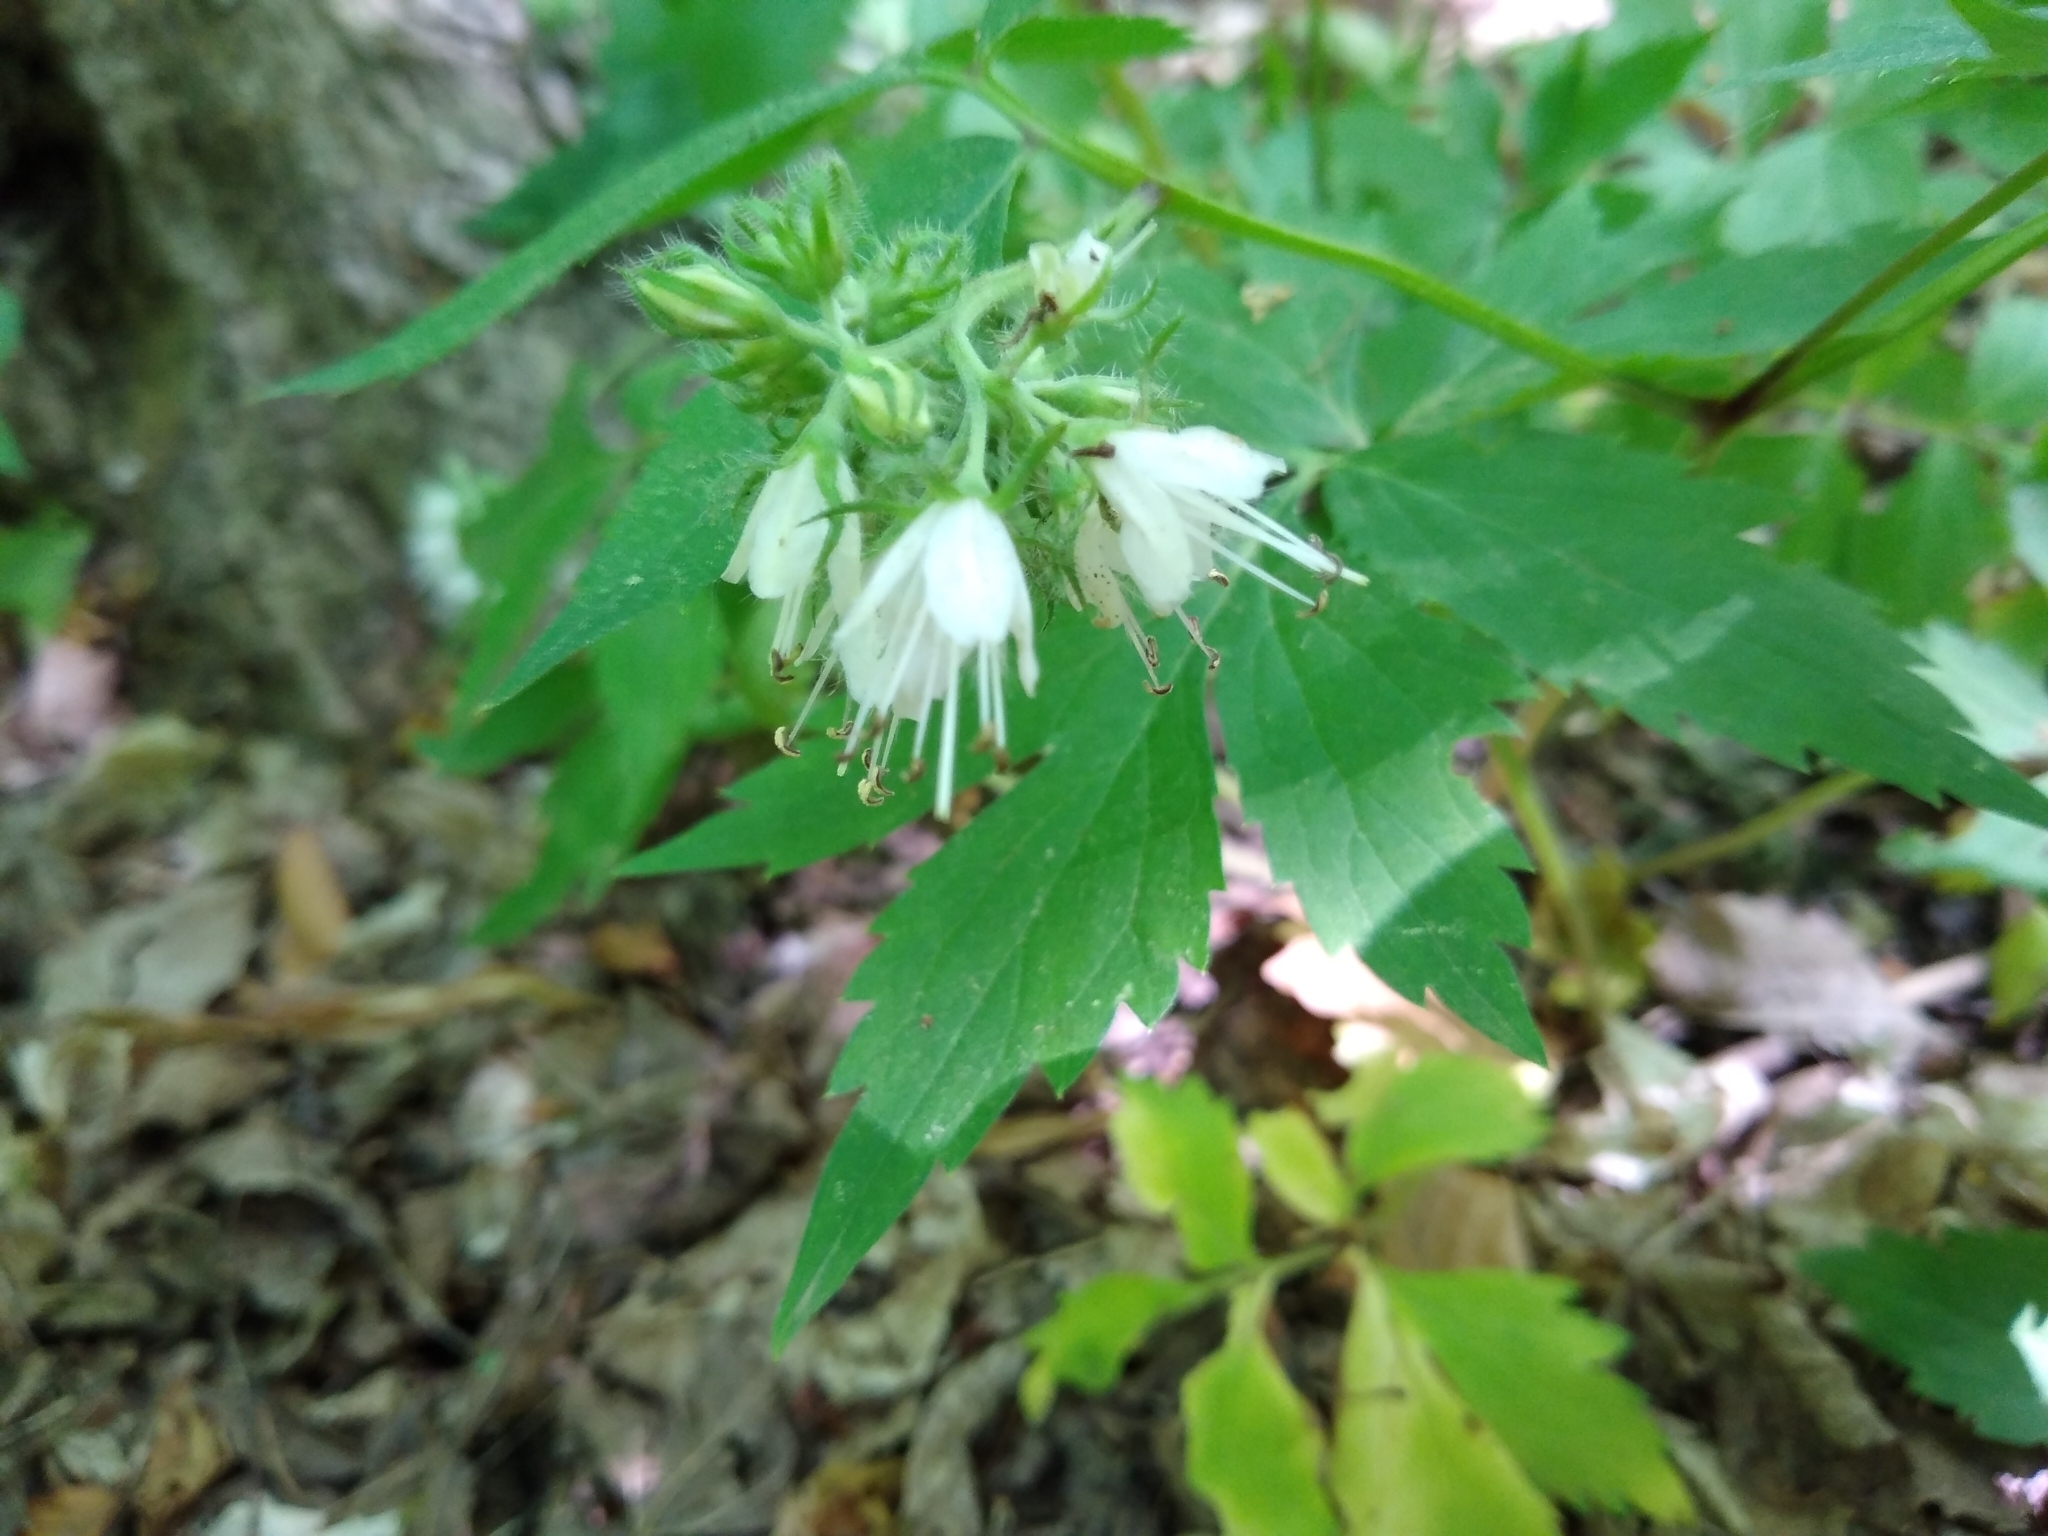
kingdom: Plantae
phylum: Tracheophyta
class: Magnoliopsida
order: Boraginales
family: Hydrophyllaceae
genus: Hydrophyllum
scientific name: Hydrophyllum virginianum
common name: Virginia waterleaf
